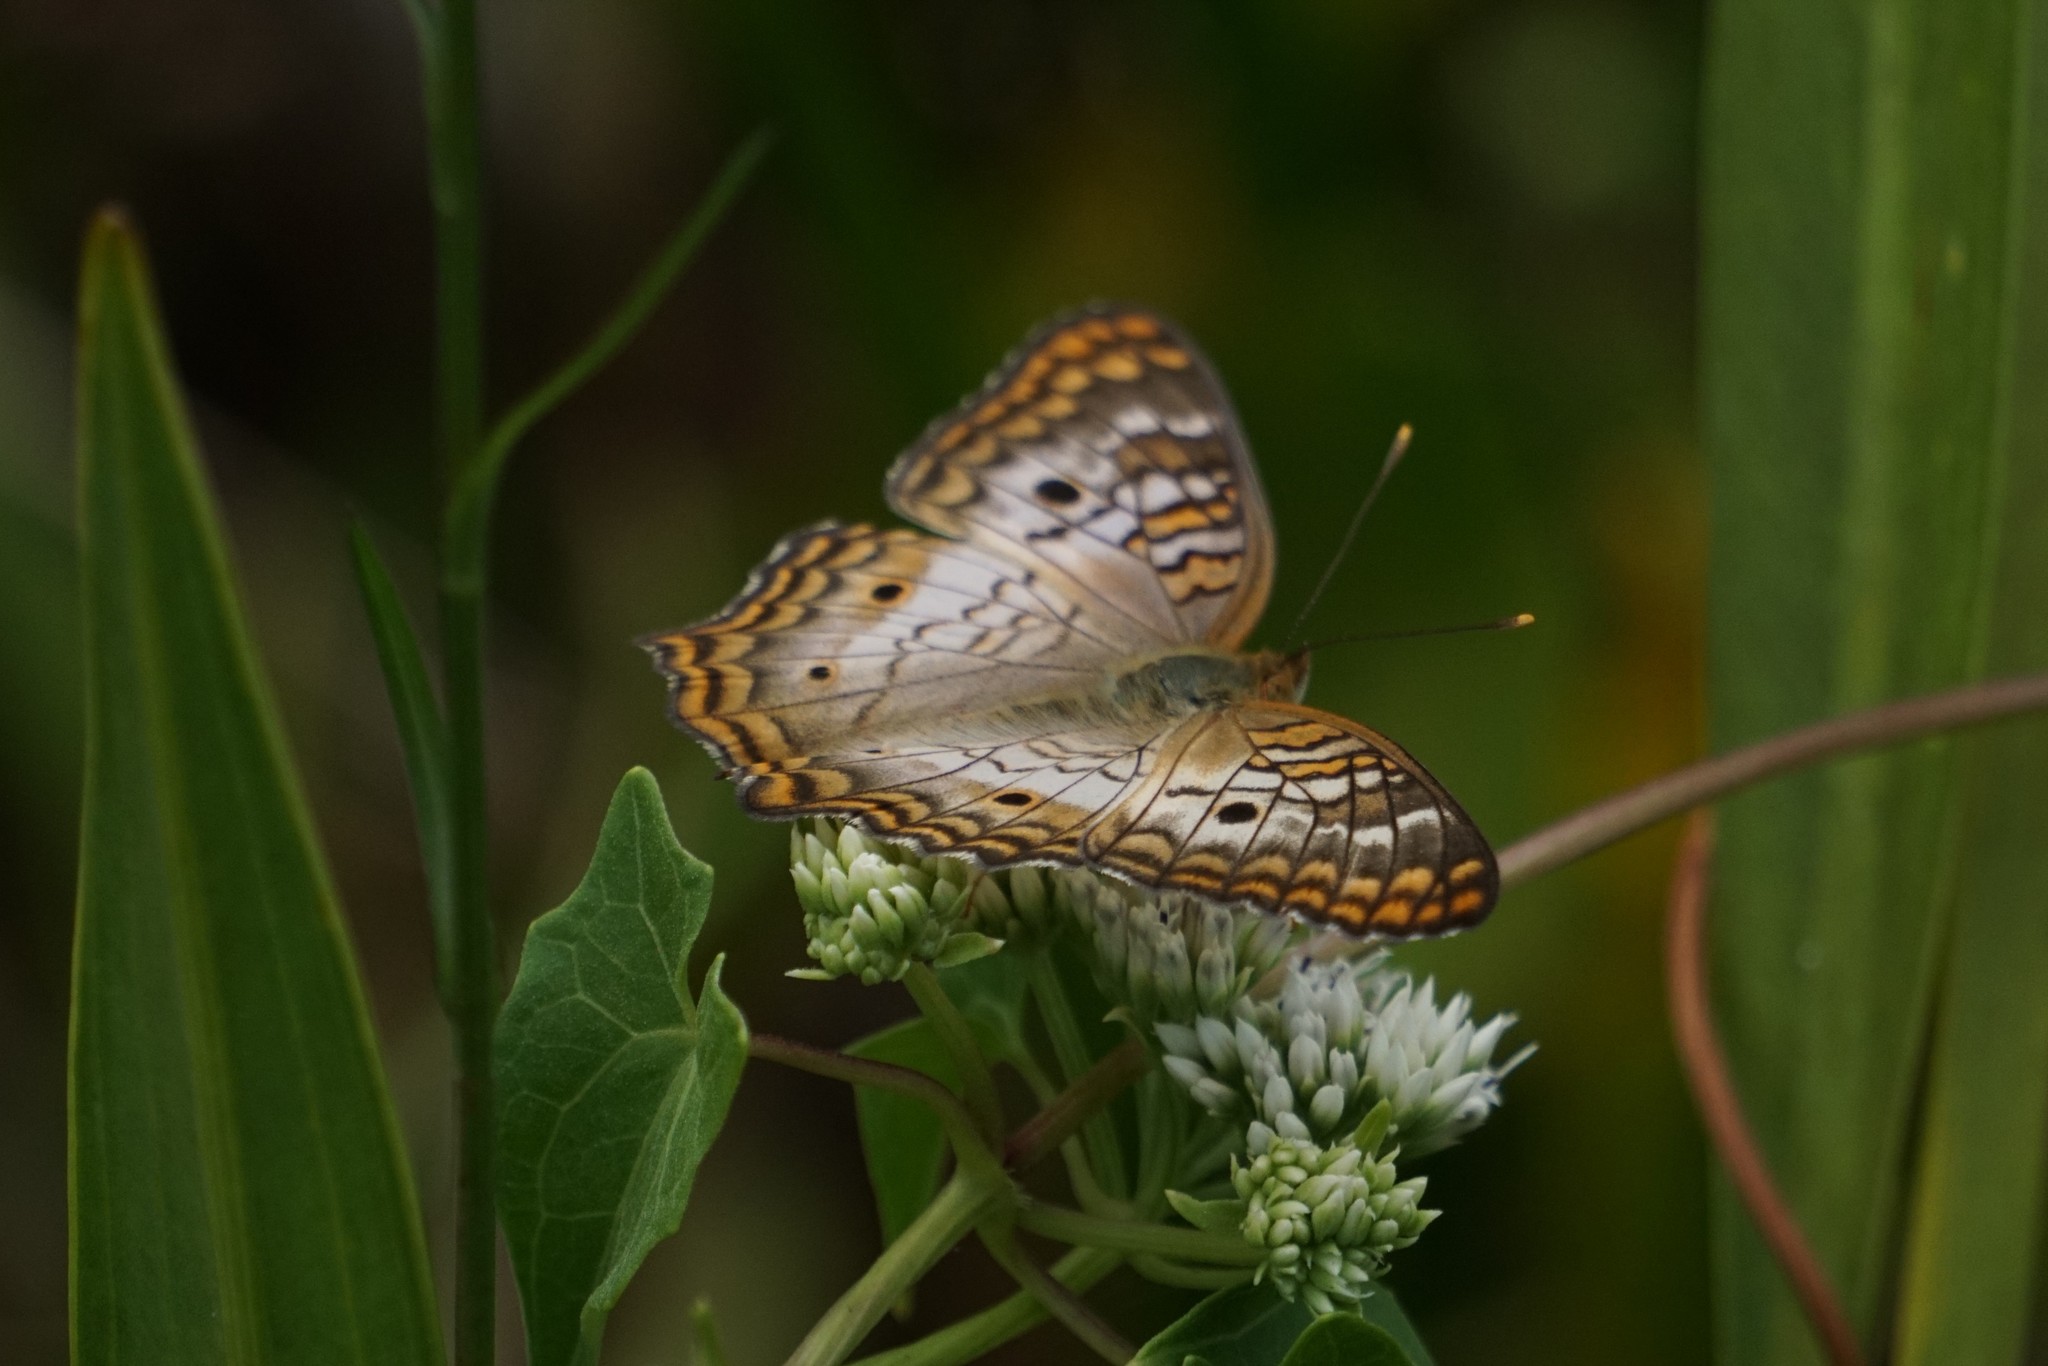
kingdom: Animalia
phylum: Arthropoda
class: Insecta
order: Lepidoptera
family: Nymphalidae
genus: Anartia
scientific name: Anartia jatrophae
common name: White peacock
